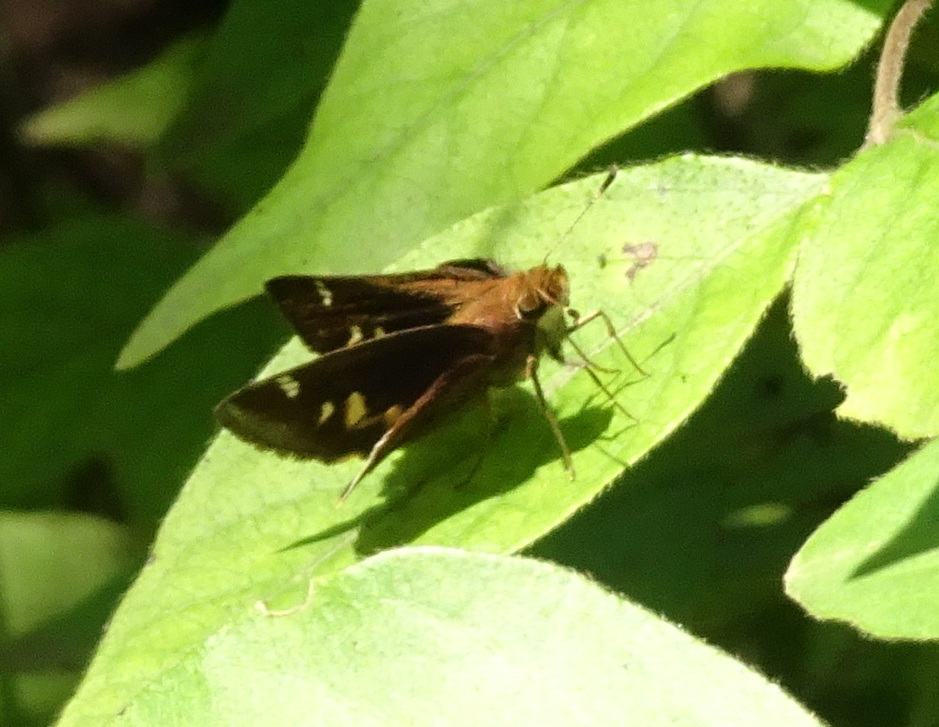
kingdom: Animalia
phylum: Arthropoda
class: Insecta
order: Lepidoptera
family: Hesperiidae
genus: Lon
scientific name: Lon zabulon
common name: Zabulon skipper
